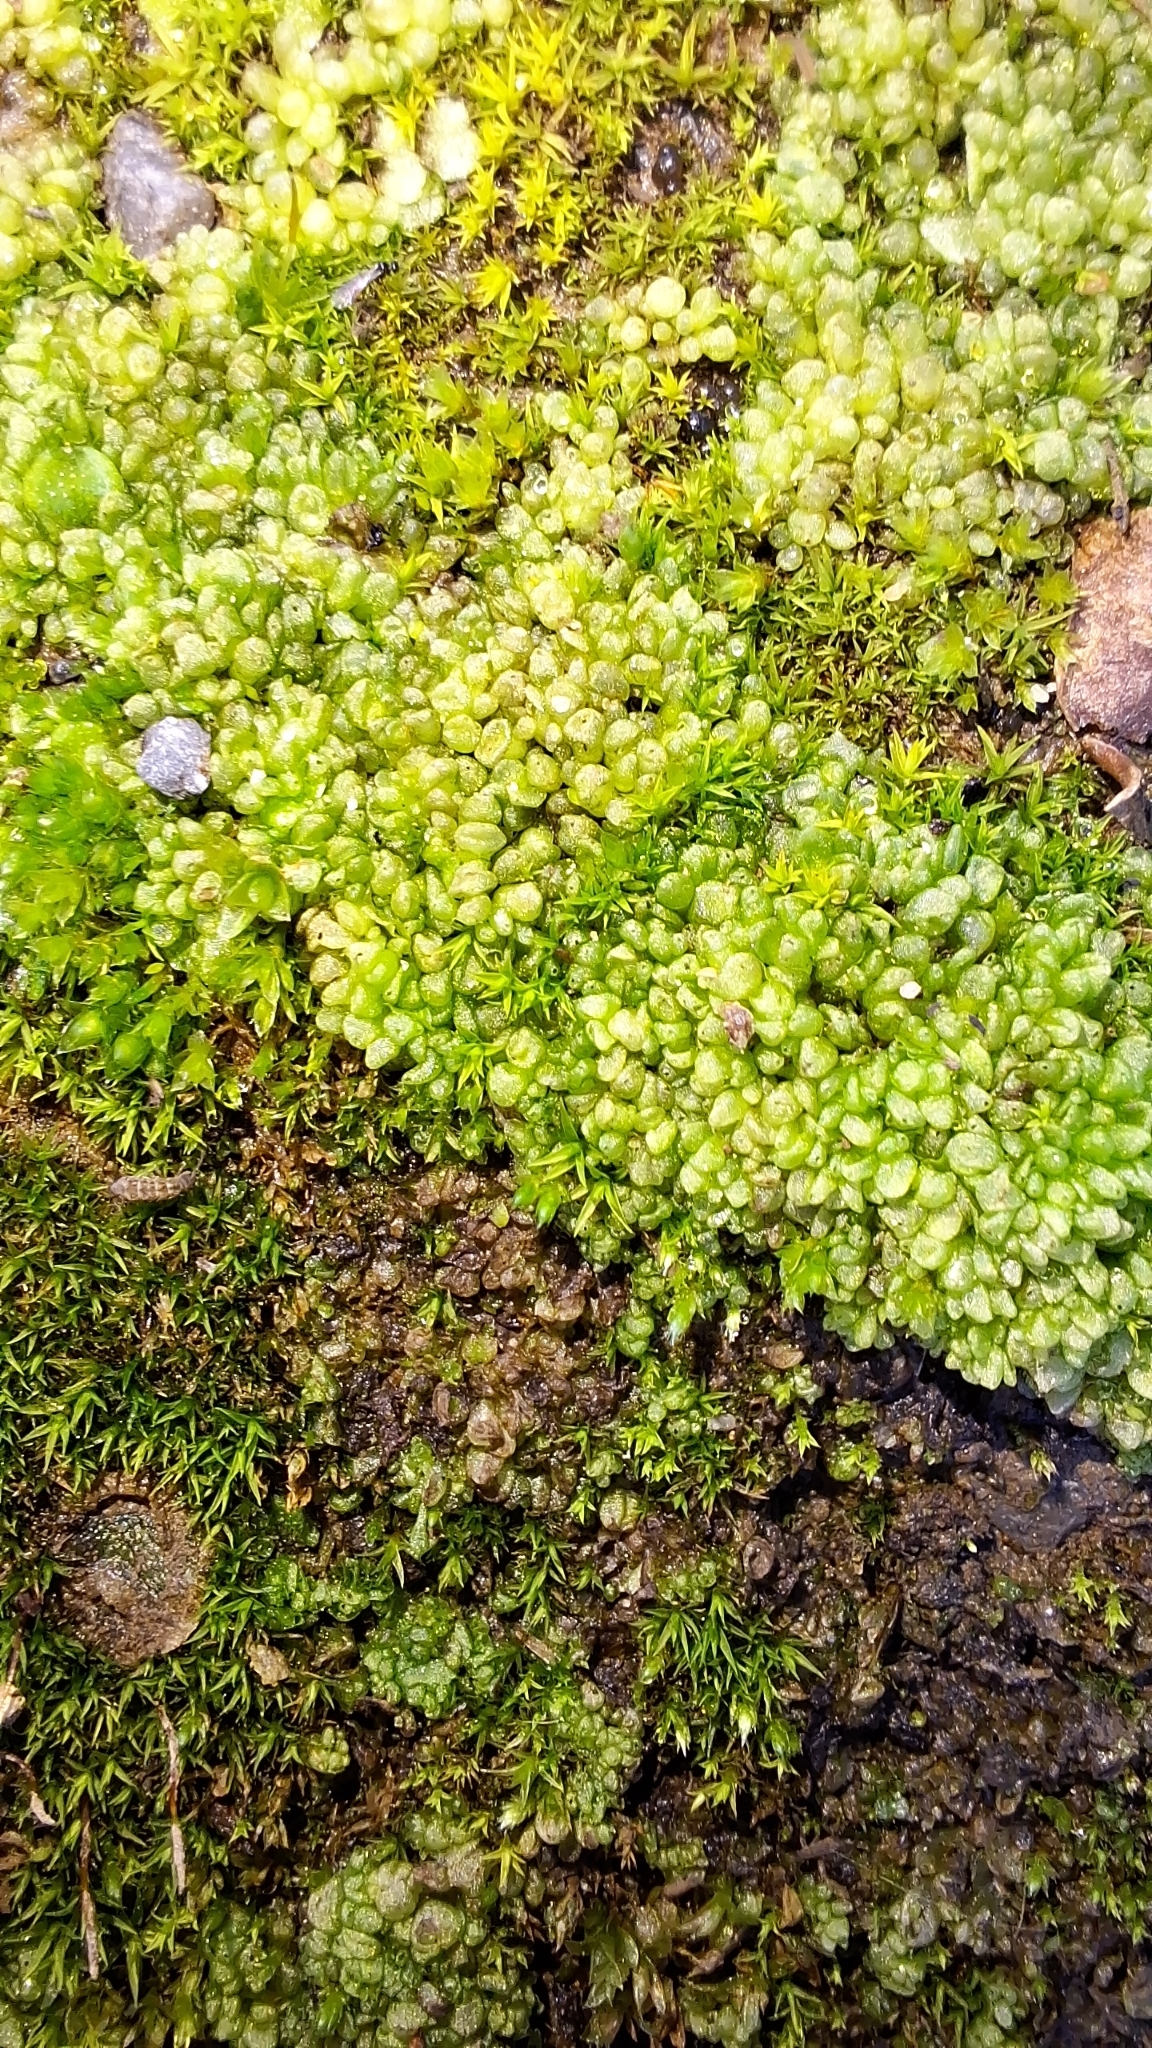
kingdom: Plantae
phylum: Marchantiophyta
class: Marchantiopsida
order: Sphaerocarpales
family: Sphaerocarpaceae
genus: Sphaerocarpos
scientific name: Sphaerocarpos texanus
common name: Texas balloonwort
